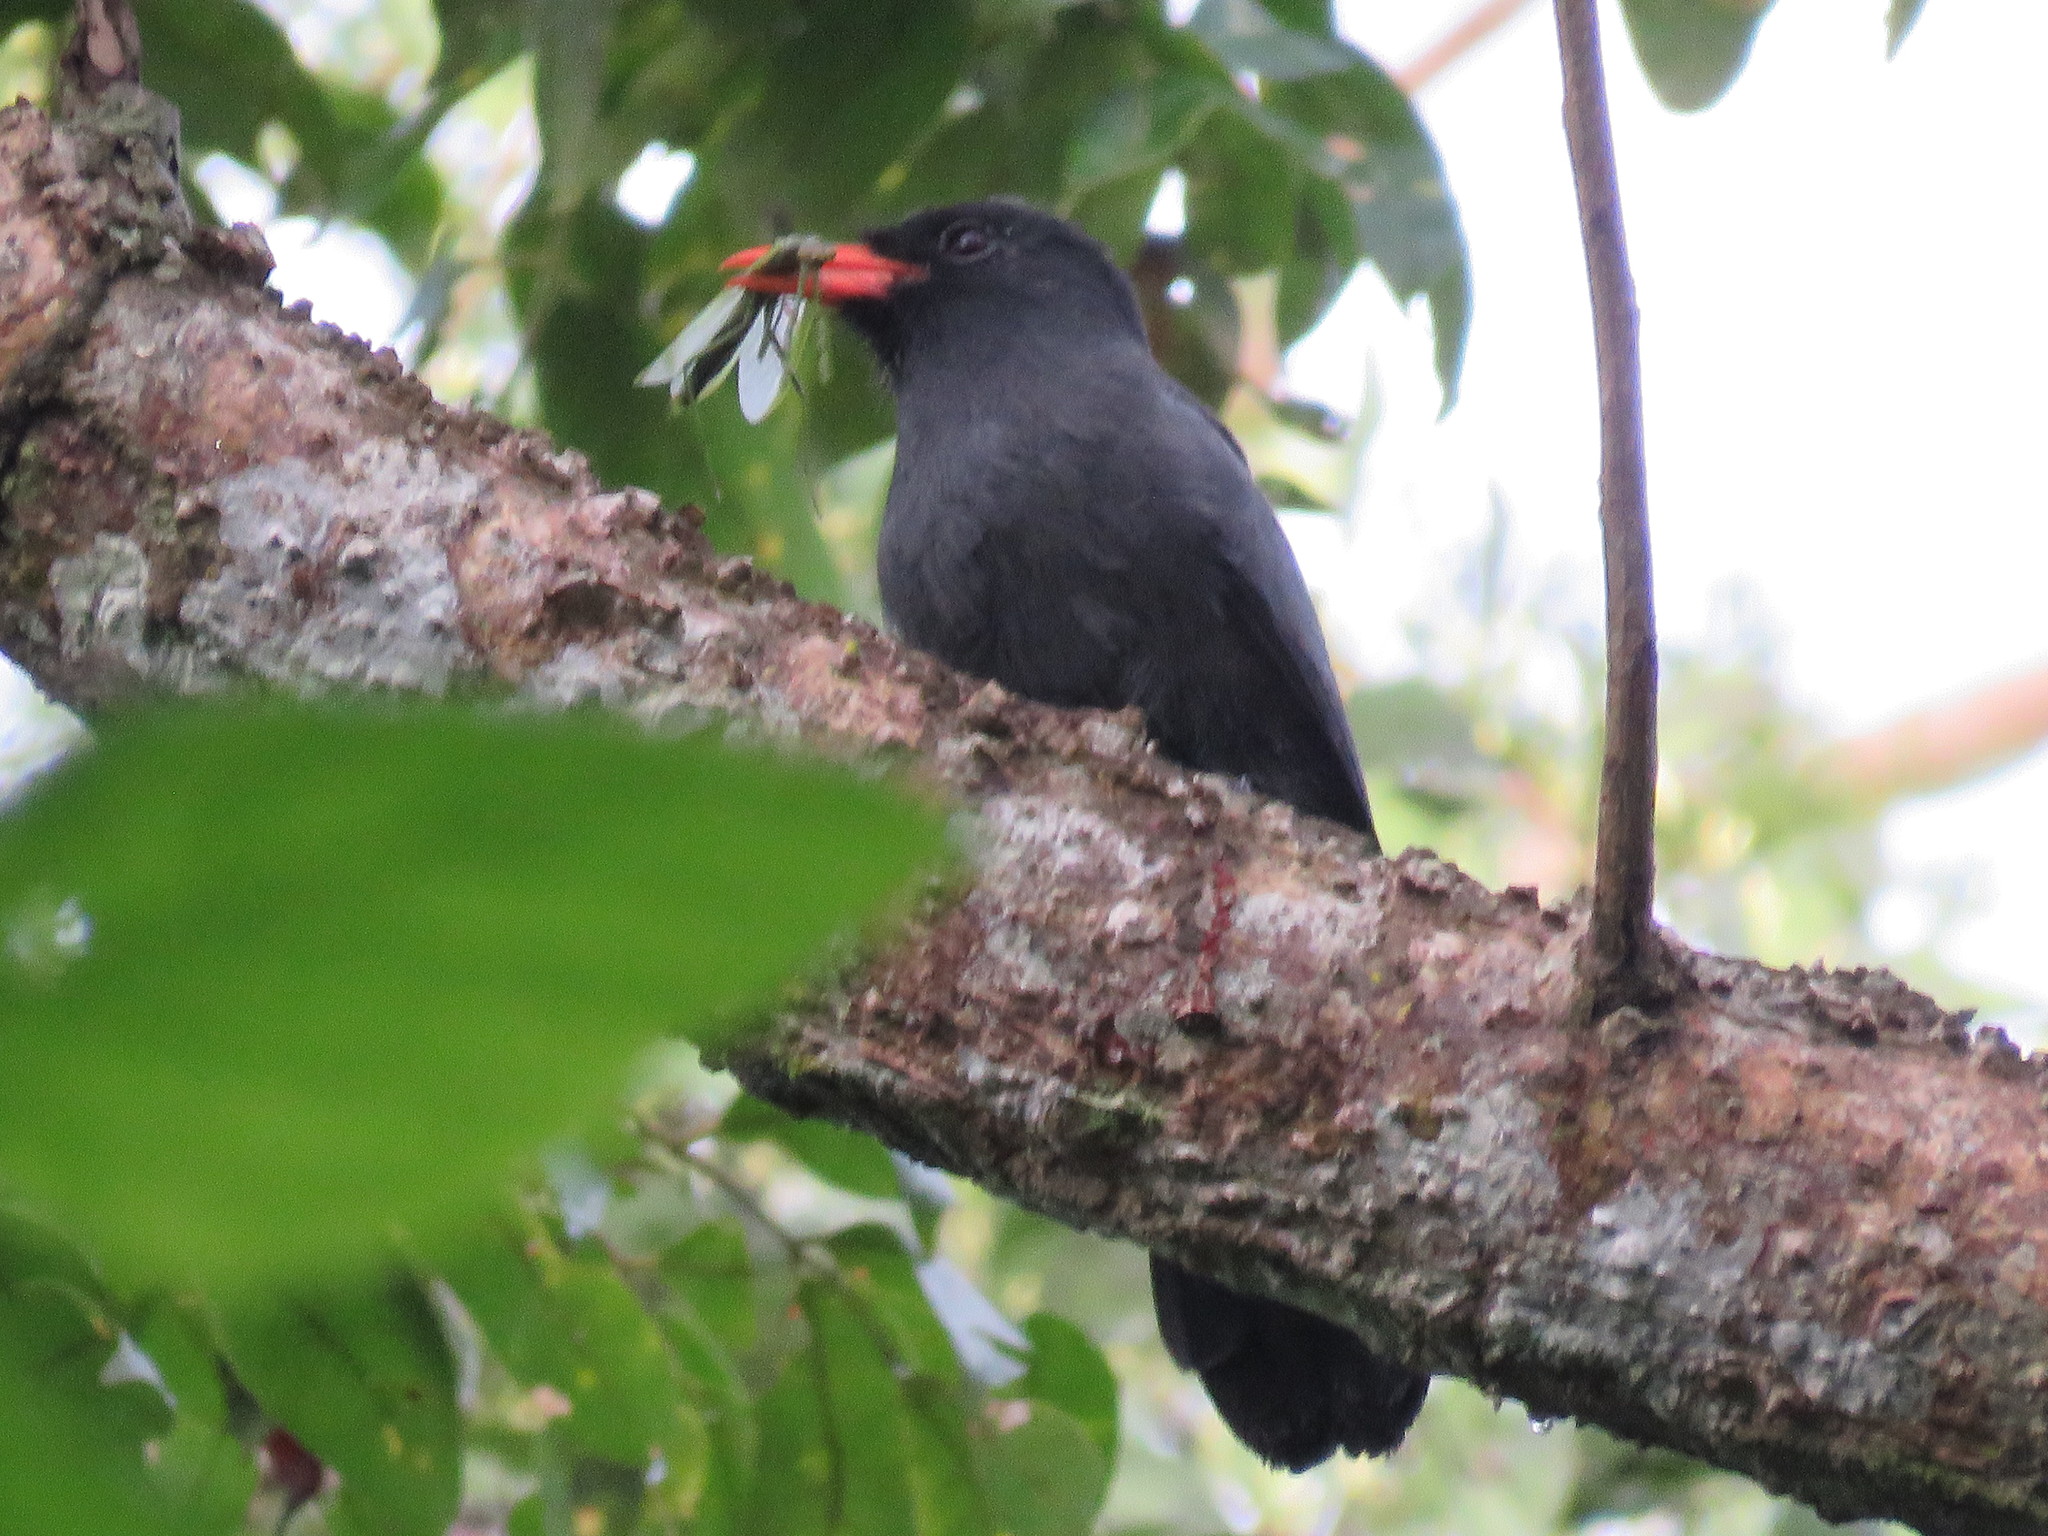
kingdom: Animalia
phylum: Chordata
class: Aves
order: Piciformes
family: Bucconidae
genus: Monasa
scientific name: Monasa nigrifrons
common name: Black-fronted nunbird
